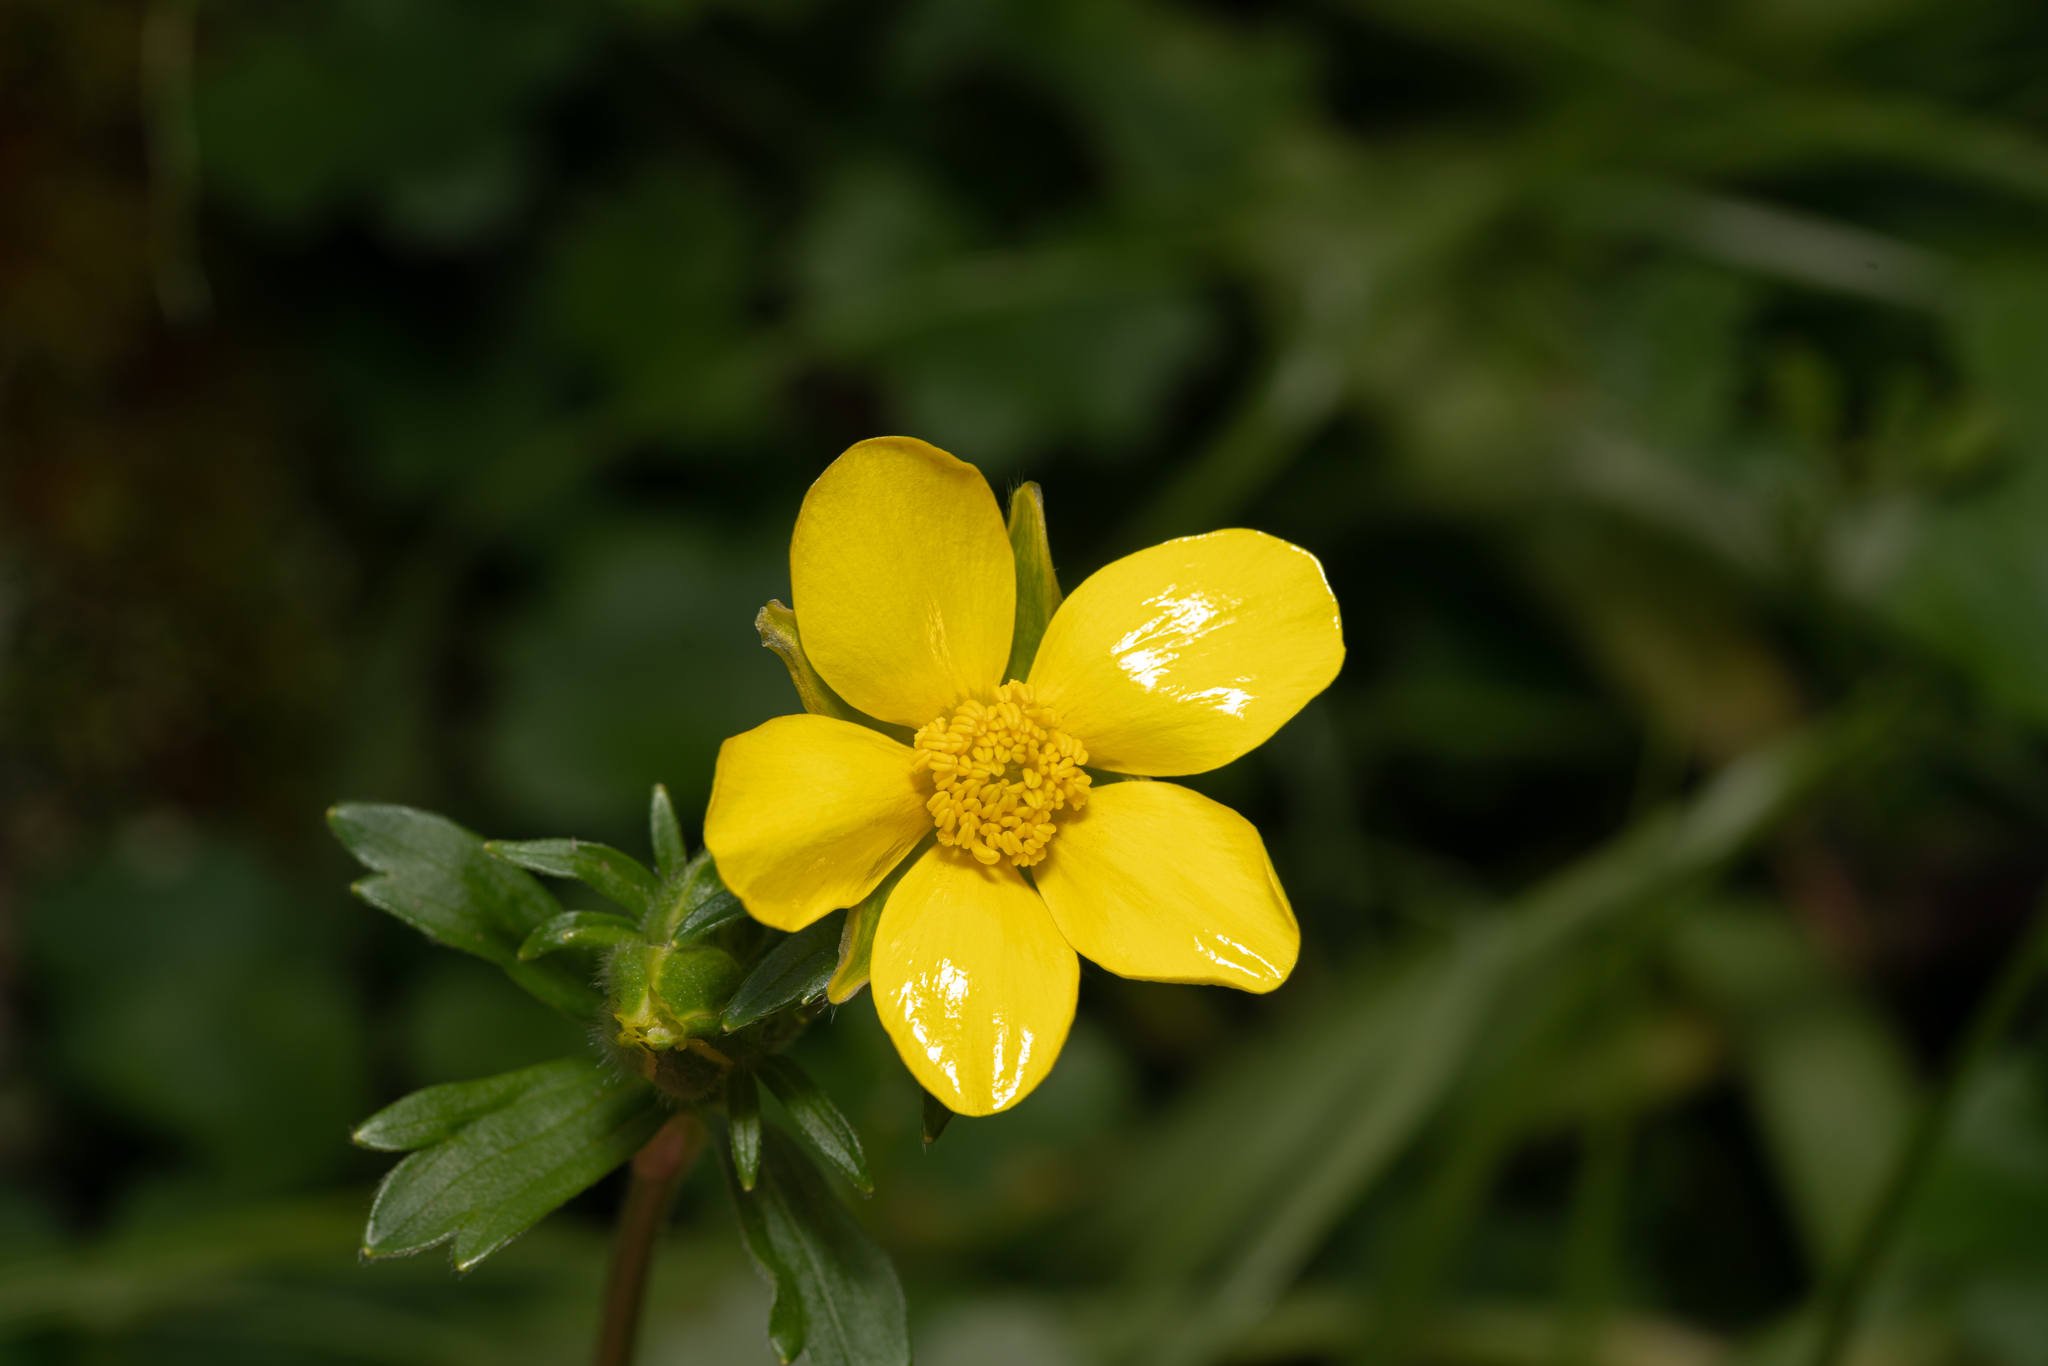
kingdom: Plantae
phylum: Tracheophyta
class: Magnoliopsida
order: Ranunculales
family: Ranunculaceae
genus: Ranunculus
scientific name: Ranunculus creticus
